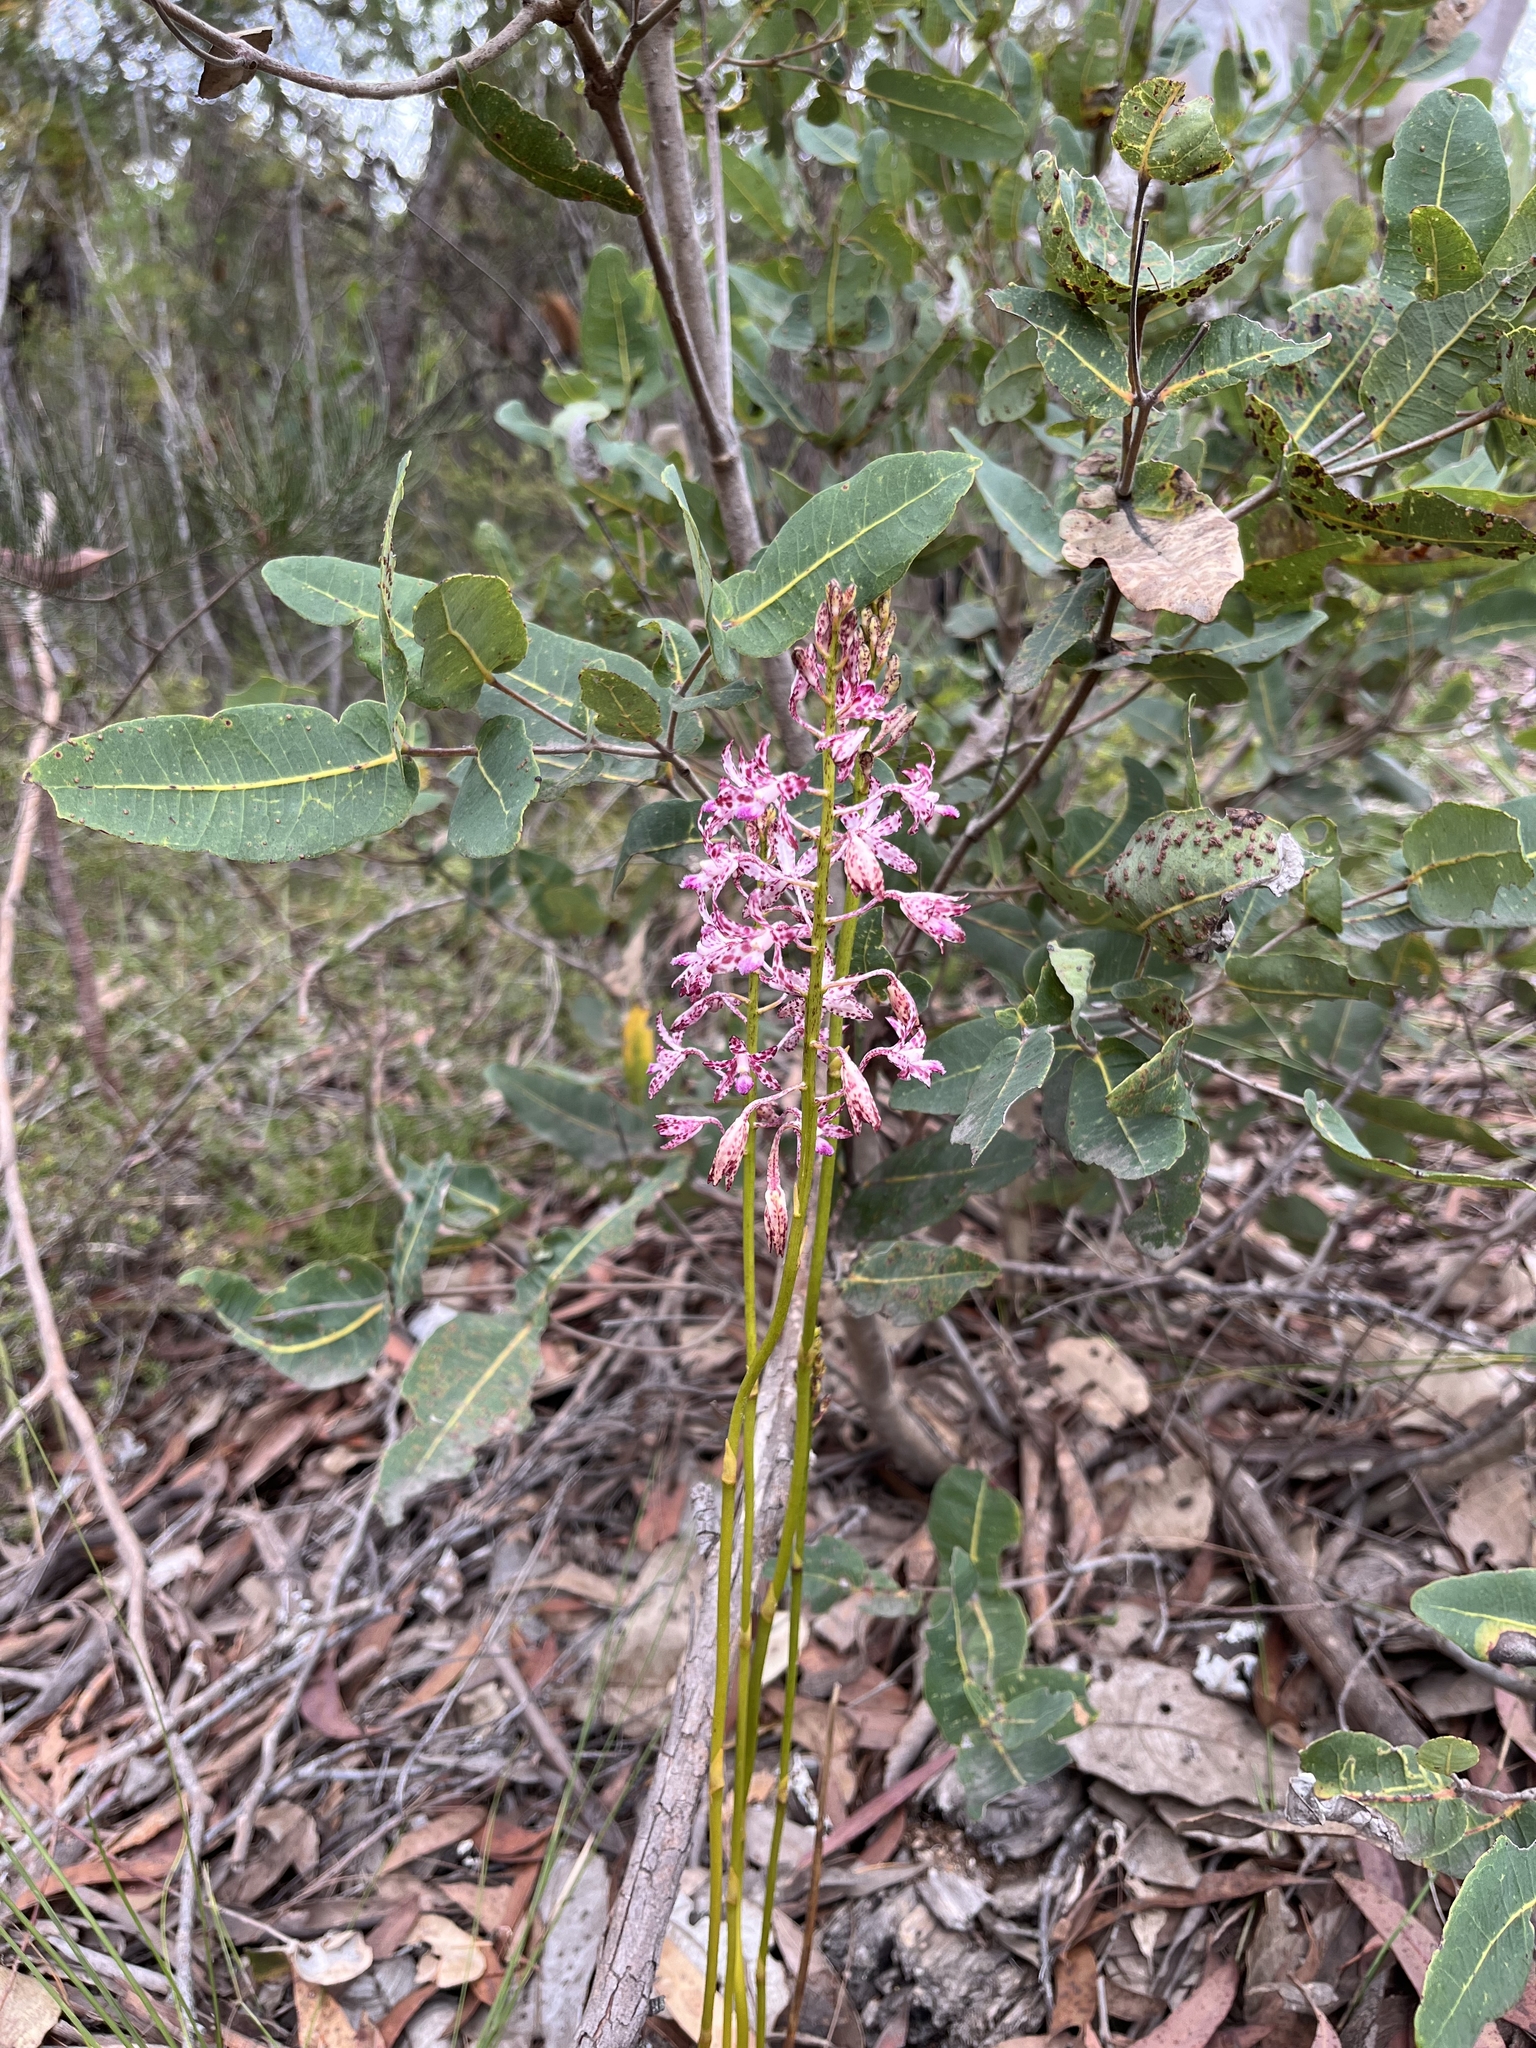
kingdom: Plantae
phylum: Tracheophyta
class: Liliopsida
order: Asparagales
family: Orchidaceae
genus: Dipodium
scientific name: Dipodium variegatum
